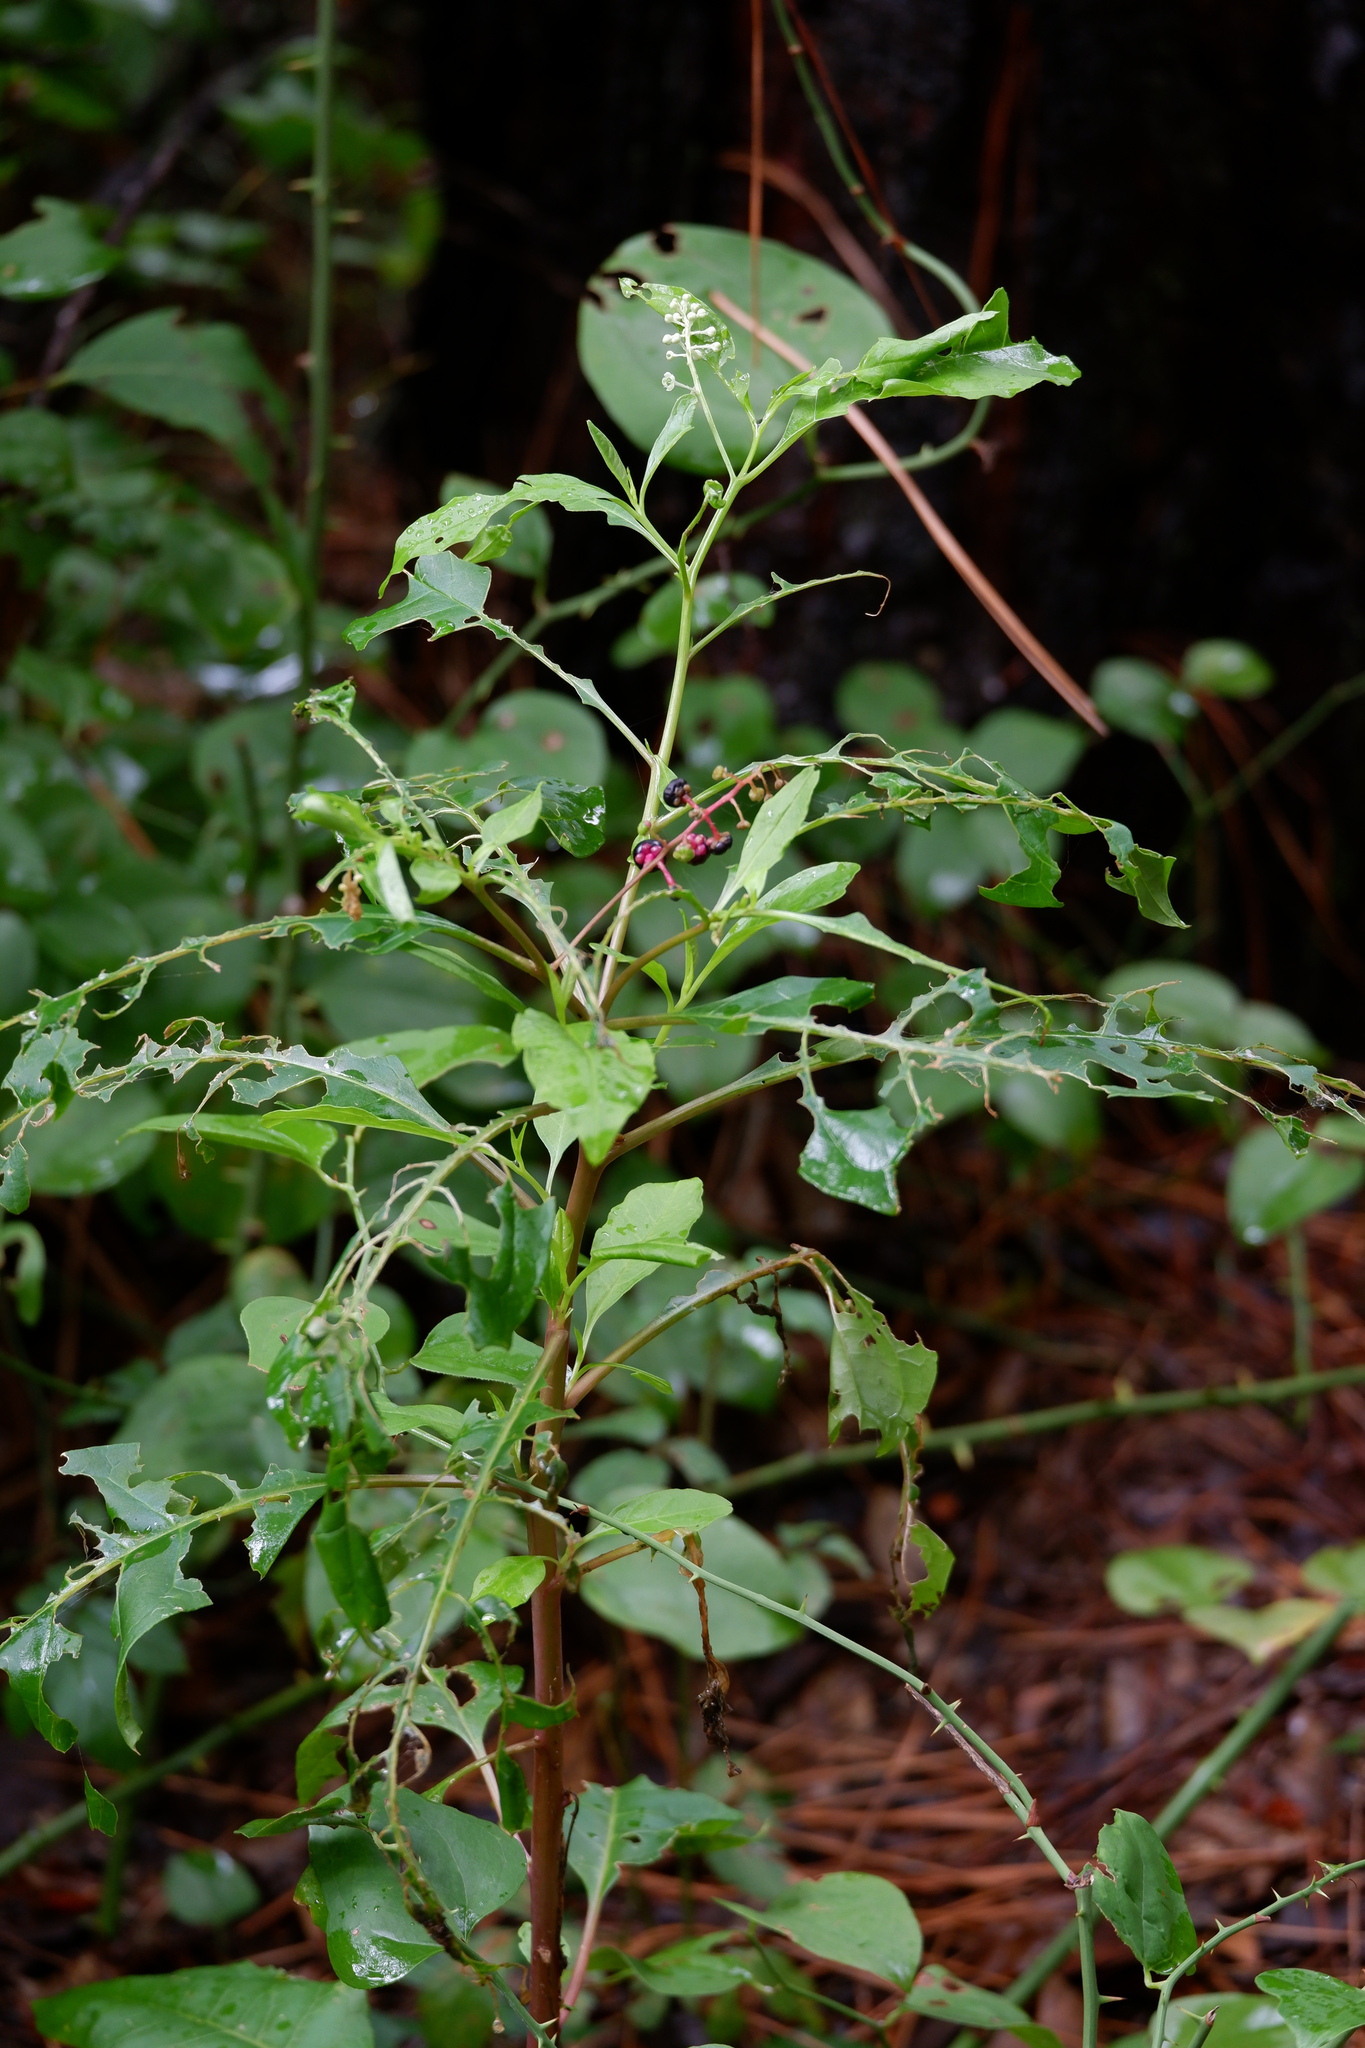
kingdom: Plantae
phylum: Tracheophyta
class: Magnoliopsida
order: Caryophyllales
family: Phytolaccaceae
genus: Phytolacca
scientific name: Phytolacca americana
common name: American pokeweed
